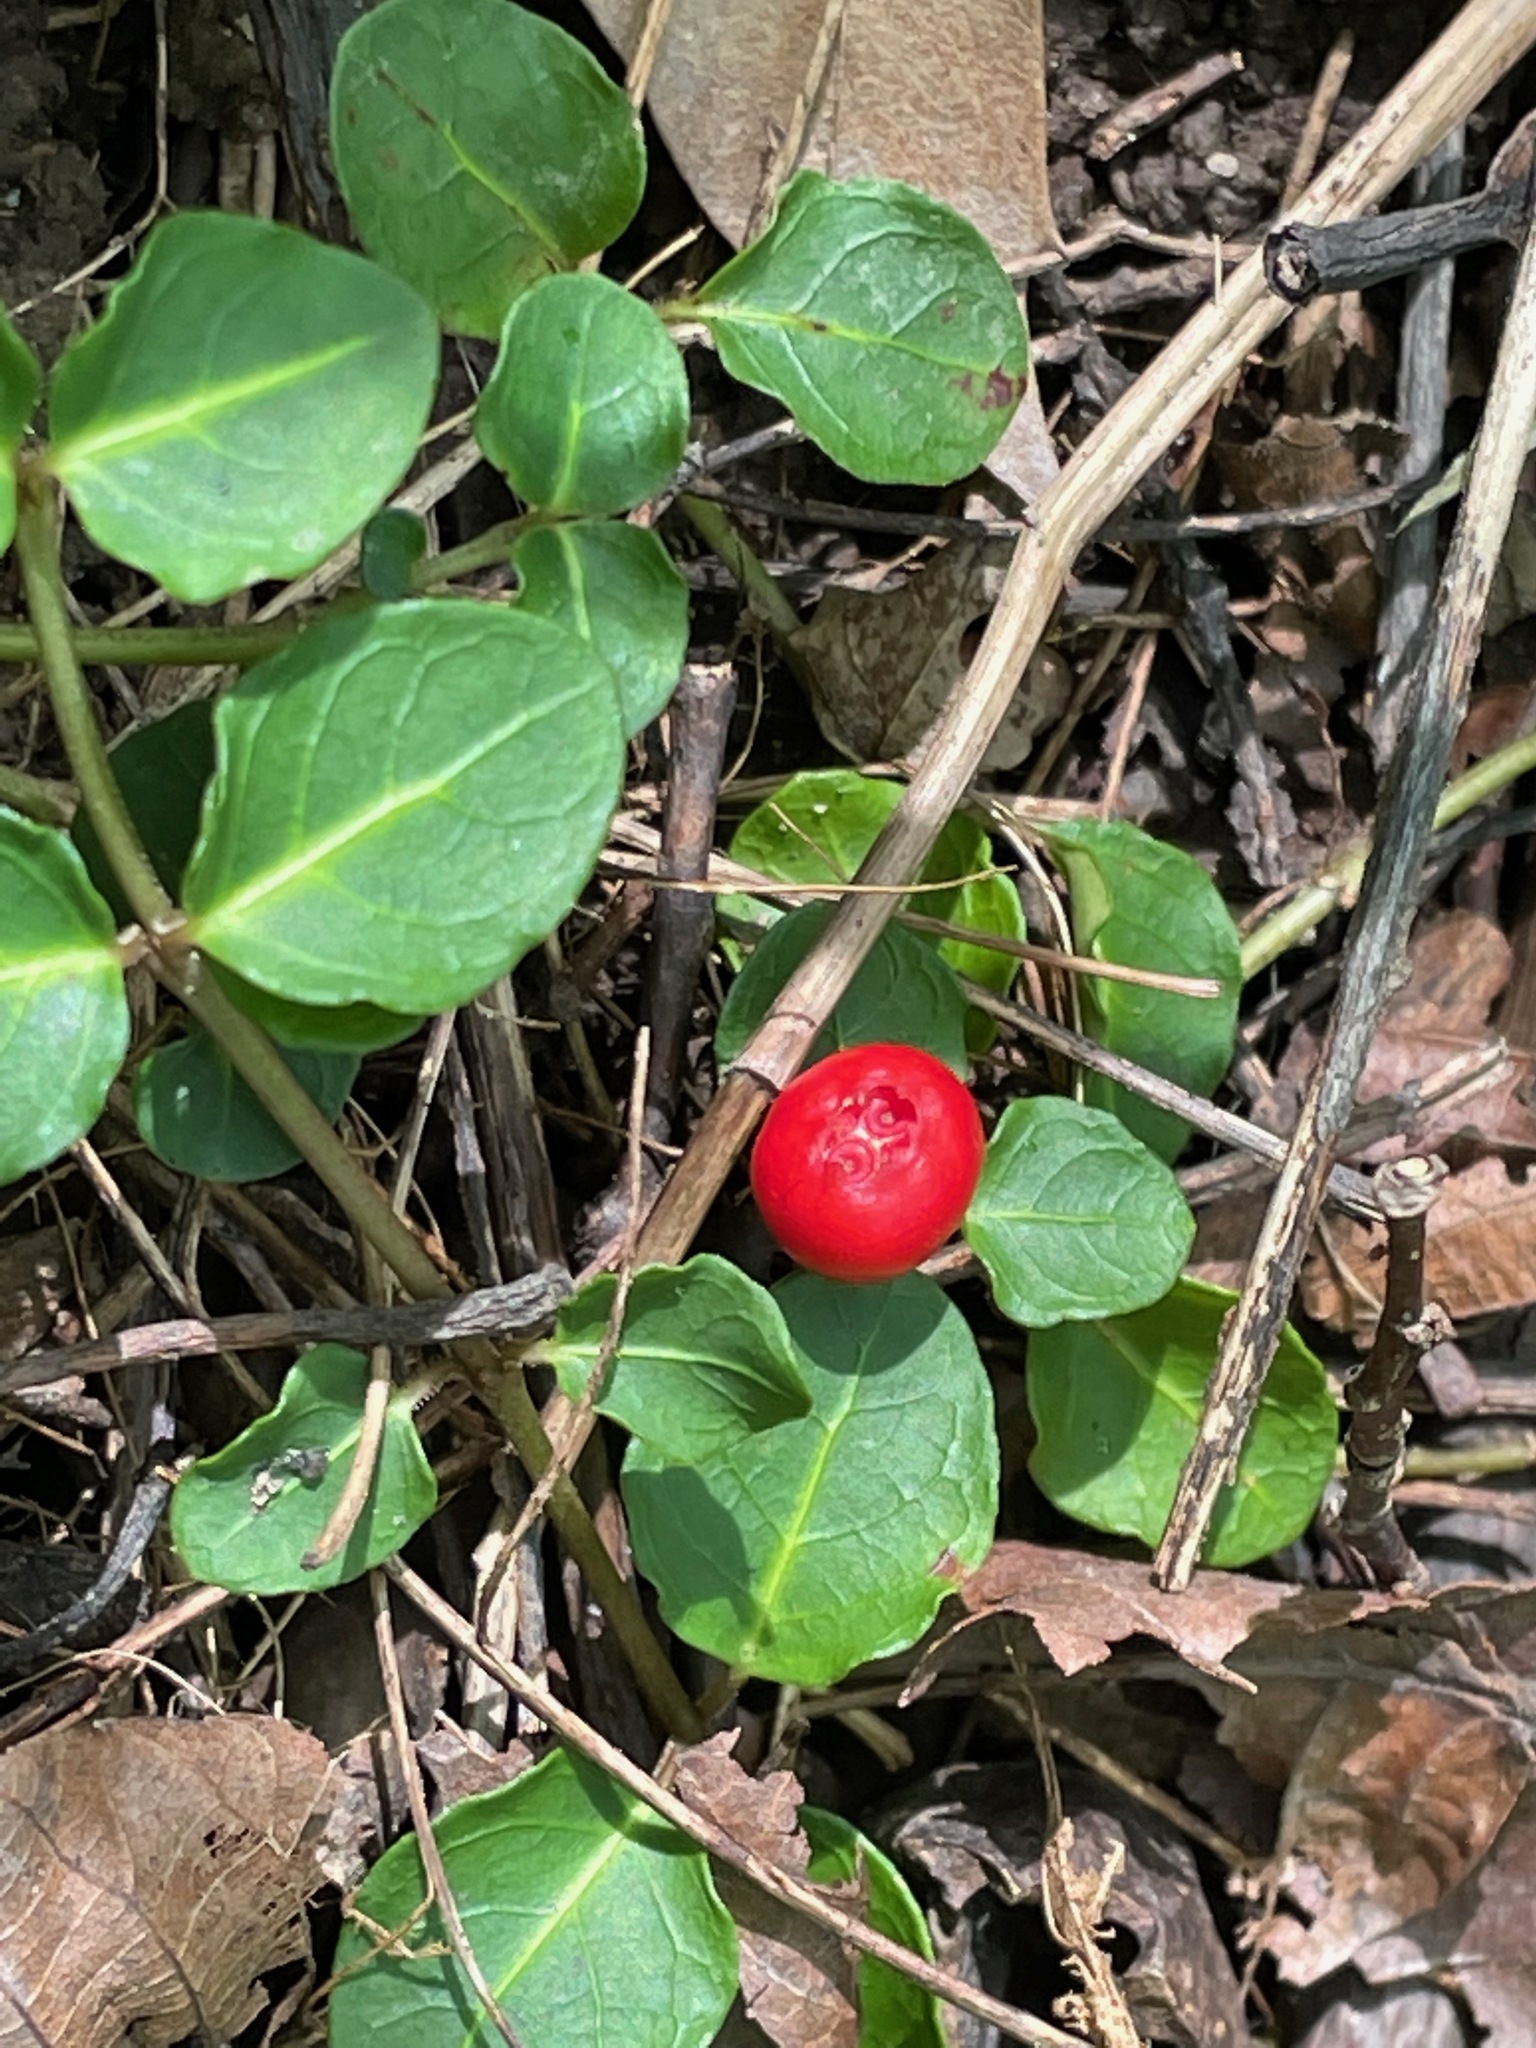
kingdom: Plantae
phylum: Tracheophyta
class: Magnoliopsida
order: Gentianales
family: Rubiaceae
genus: Mitchella
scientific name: Mitchella repens
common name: Partridge-berry
